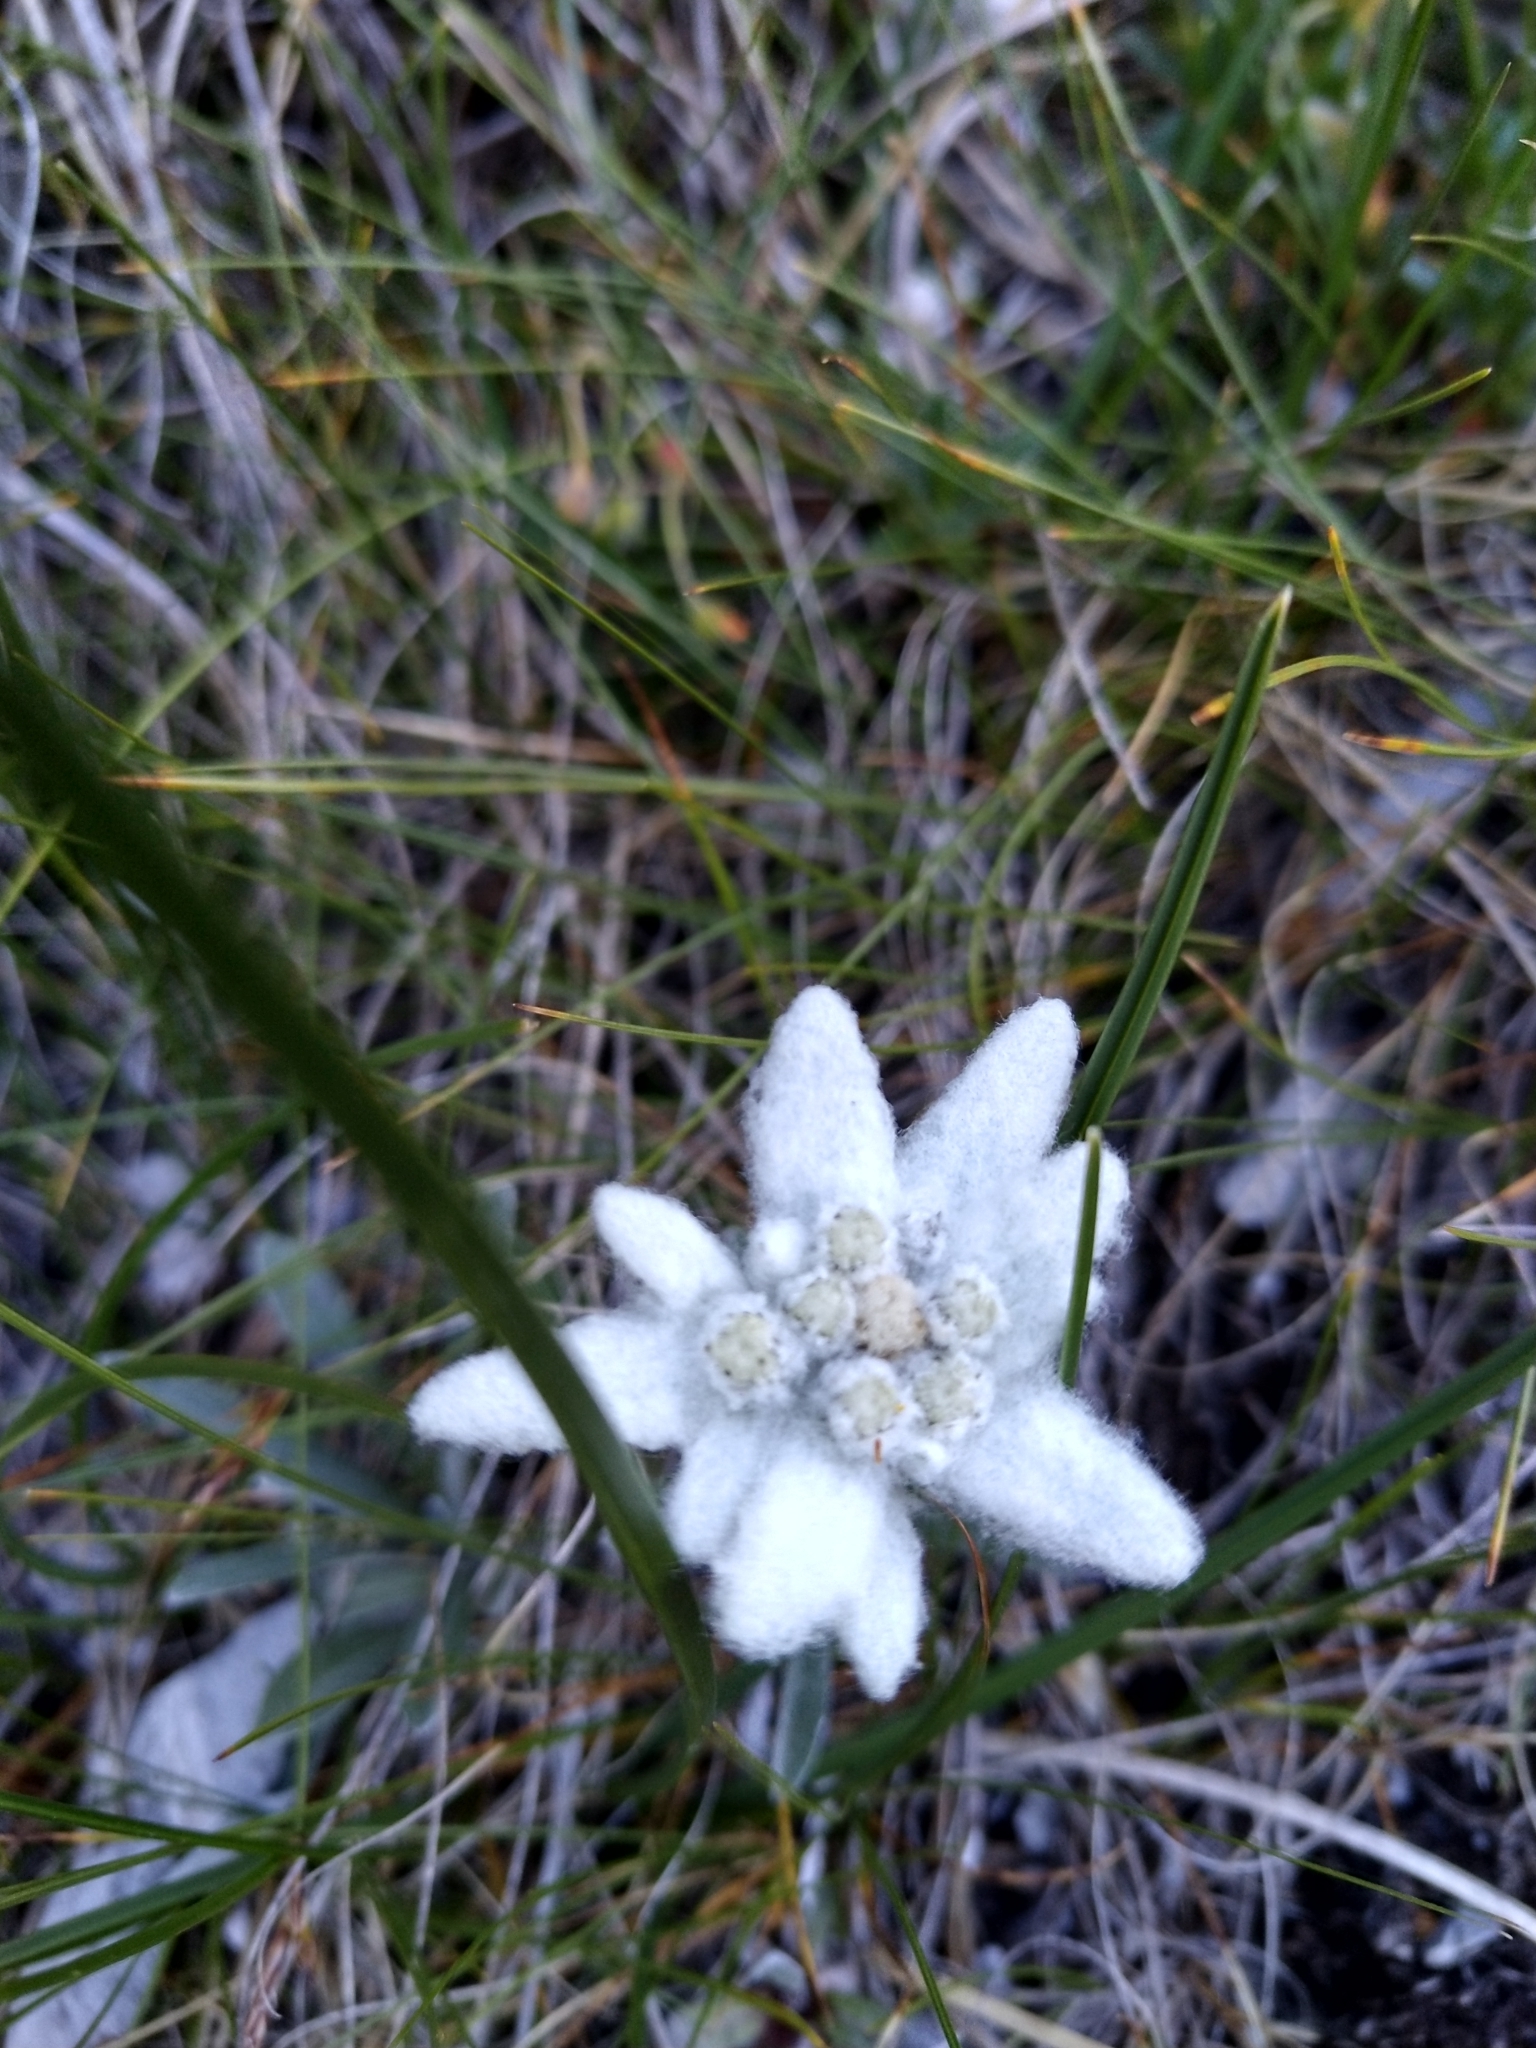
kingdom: Plantae
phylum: Tracheophyta
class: Magnoliopsida
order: Asterales
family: Asteraceae
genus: Leontopodium
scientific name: Leontopodium nivale
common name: Edelweiss
